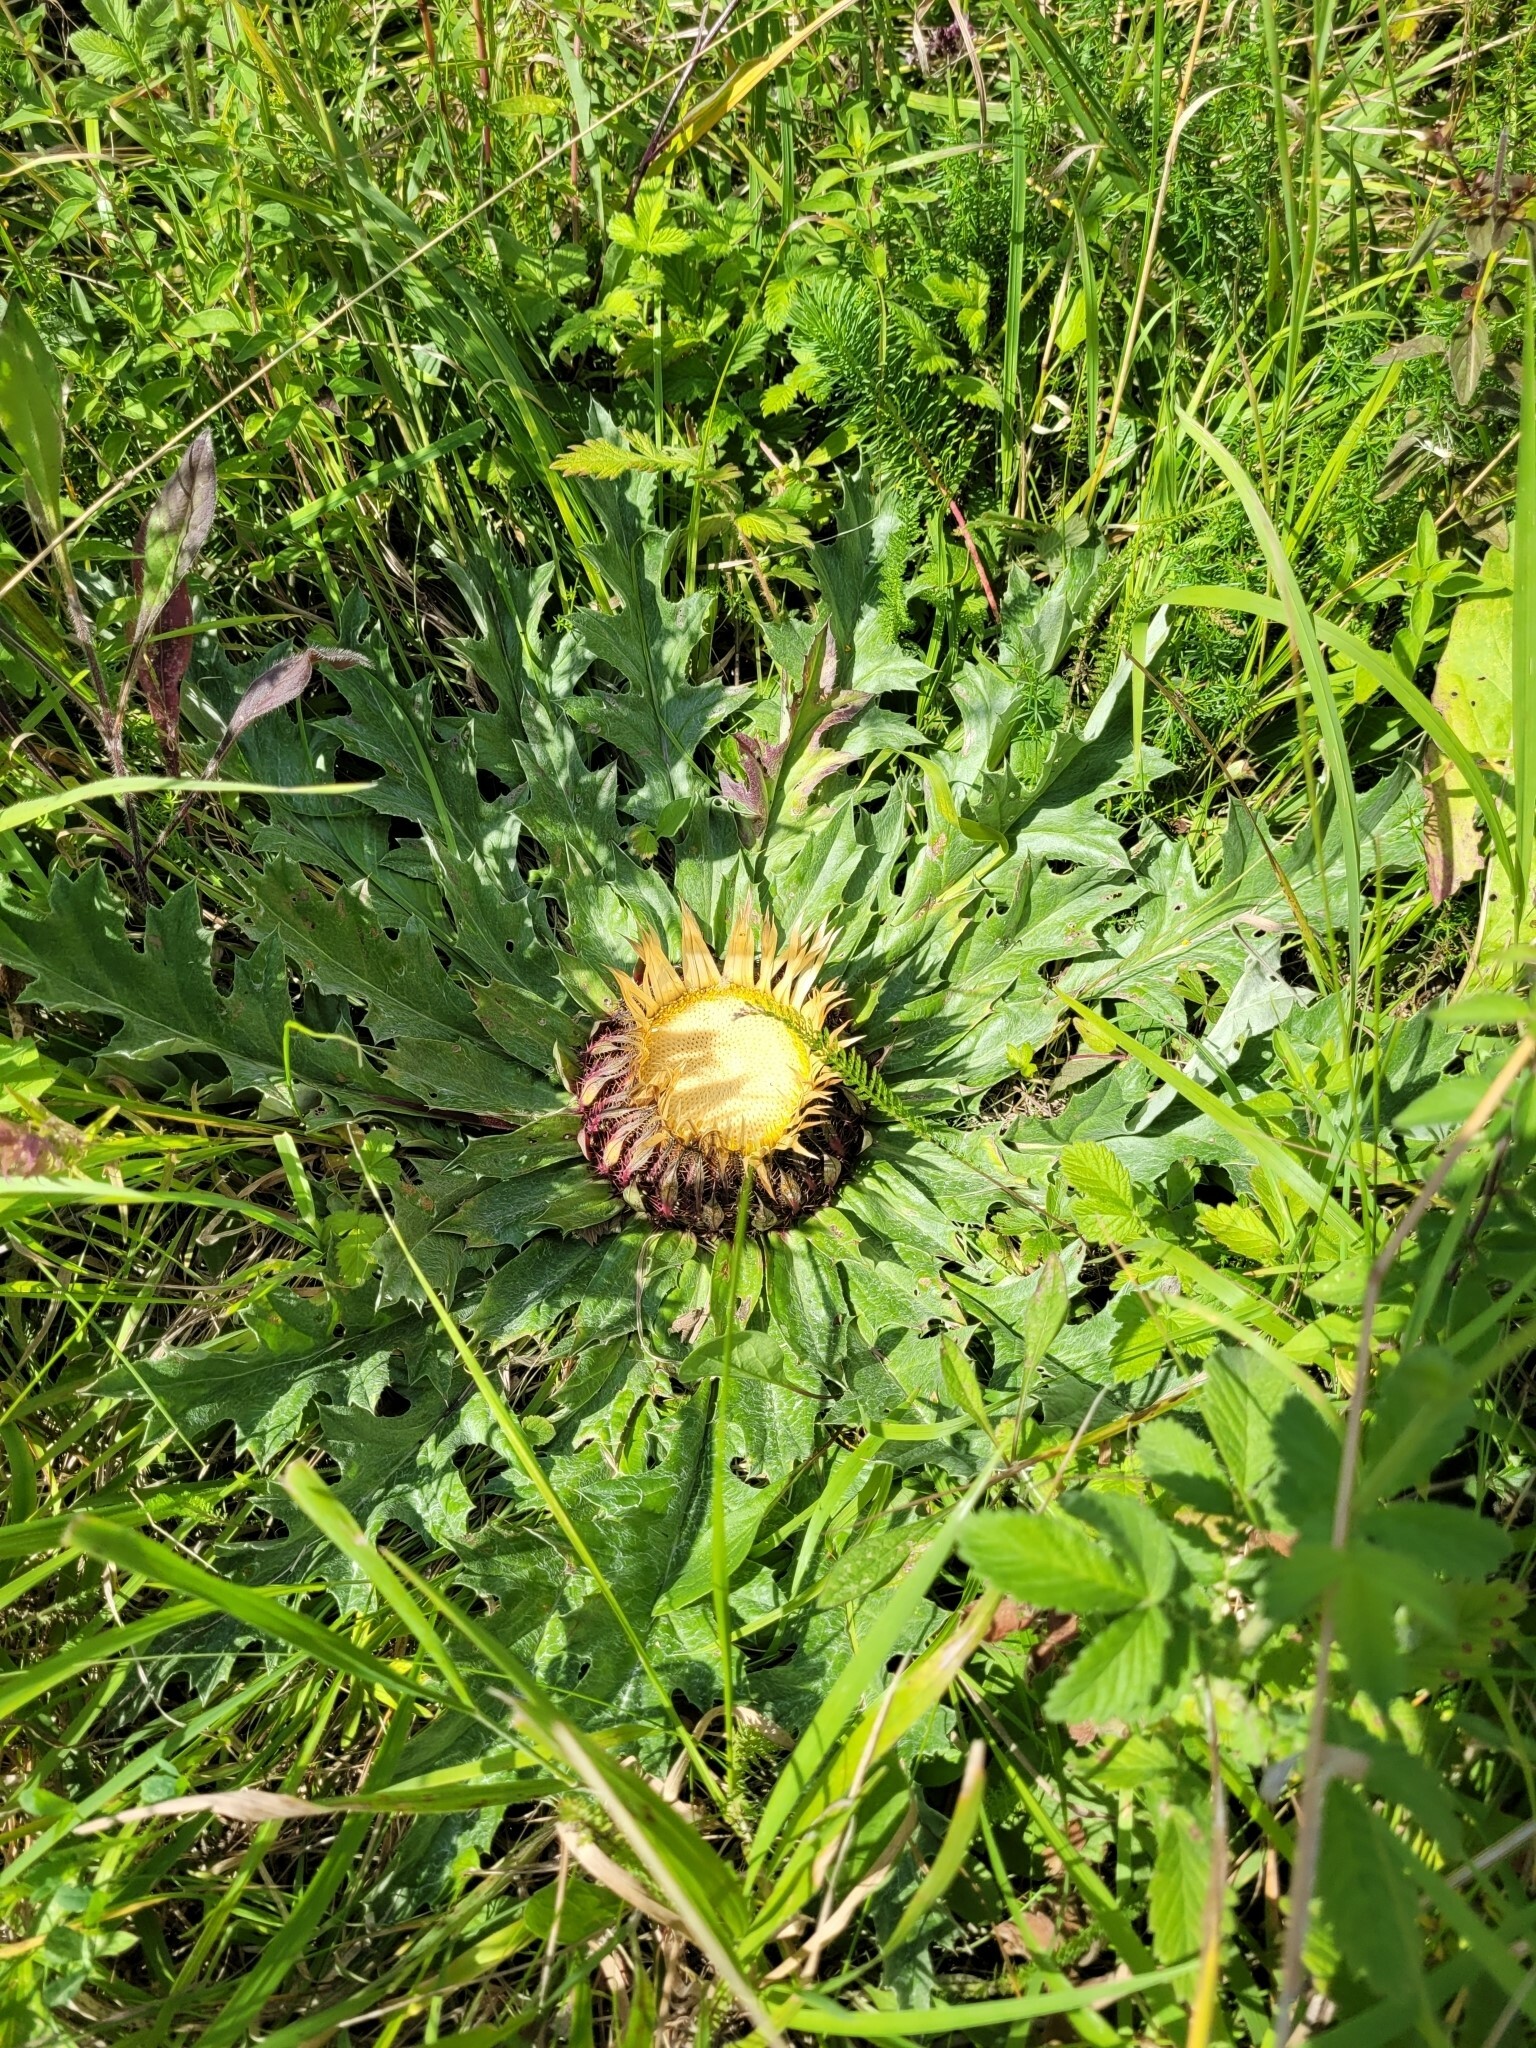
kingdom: Plantae
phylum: Tracheophyta
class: Magnoliopsida
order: Asterales
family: Asteraceae
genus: Carlina
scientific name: Carlina acanthifolia
